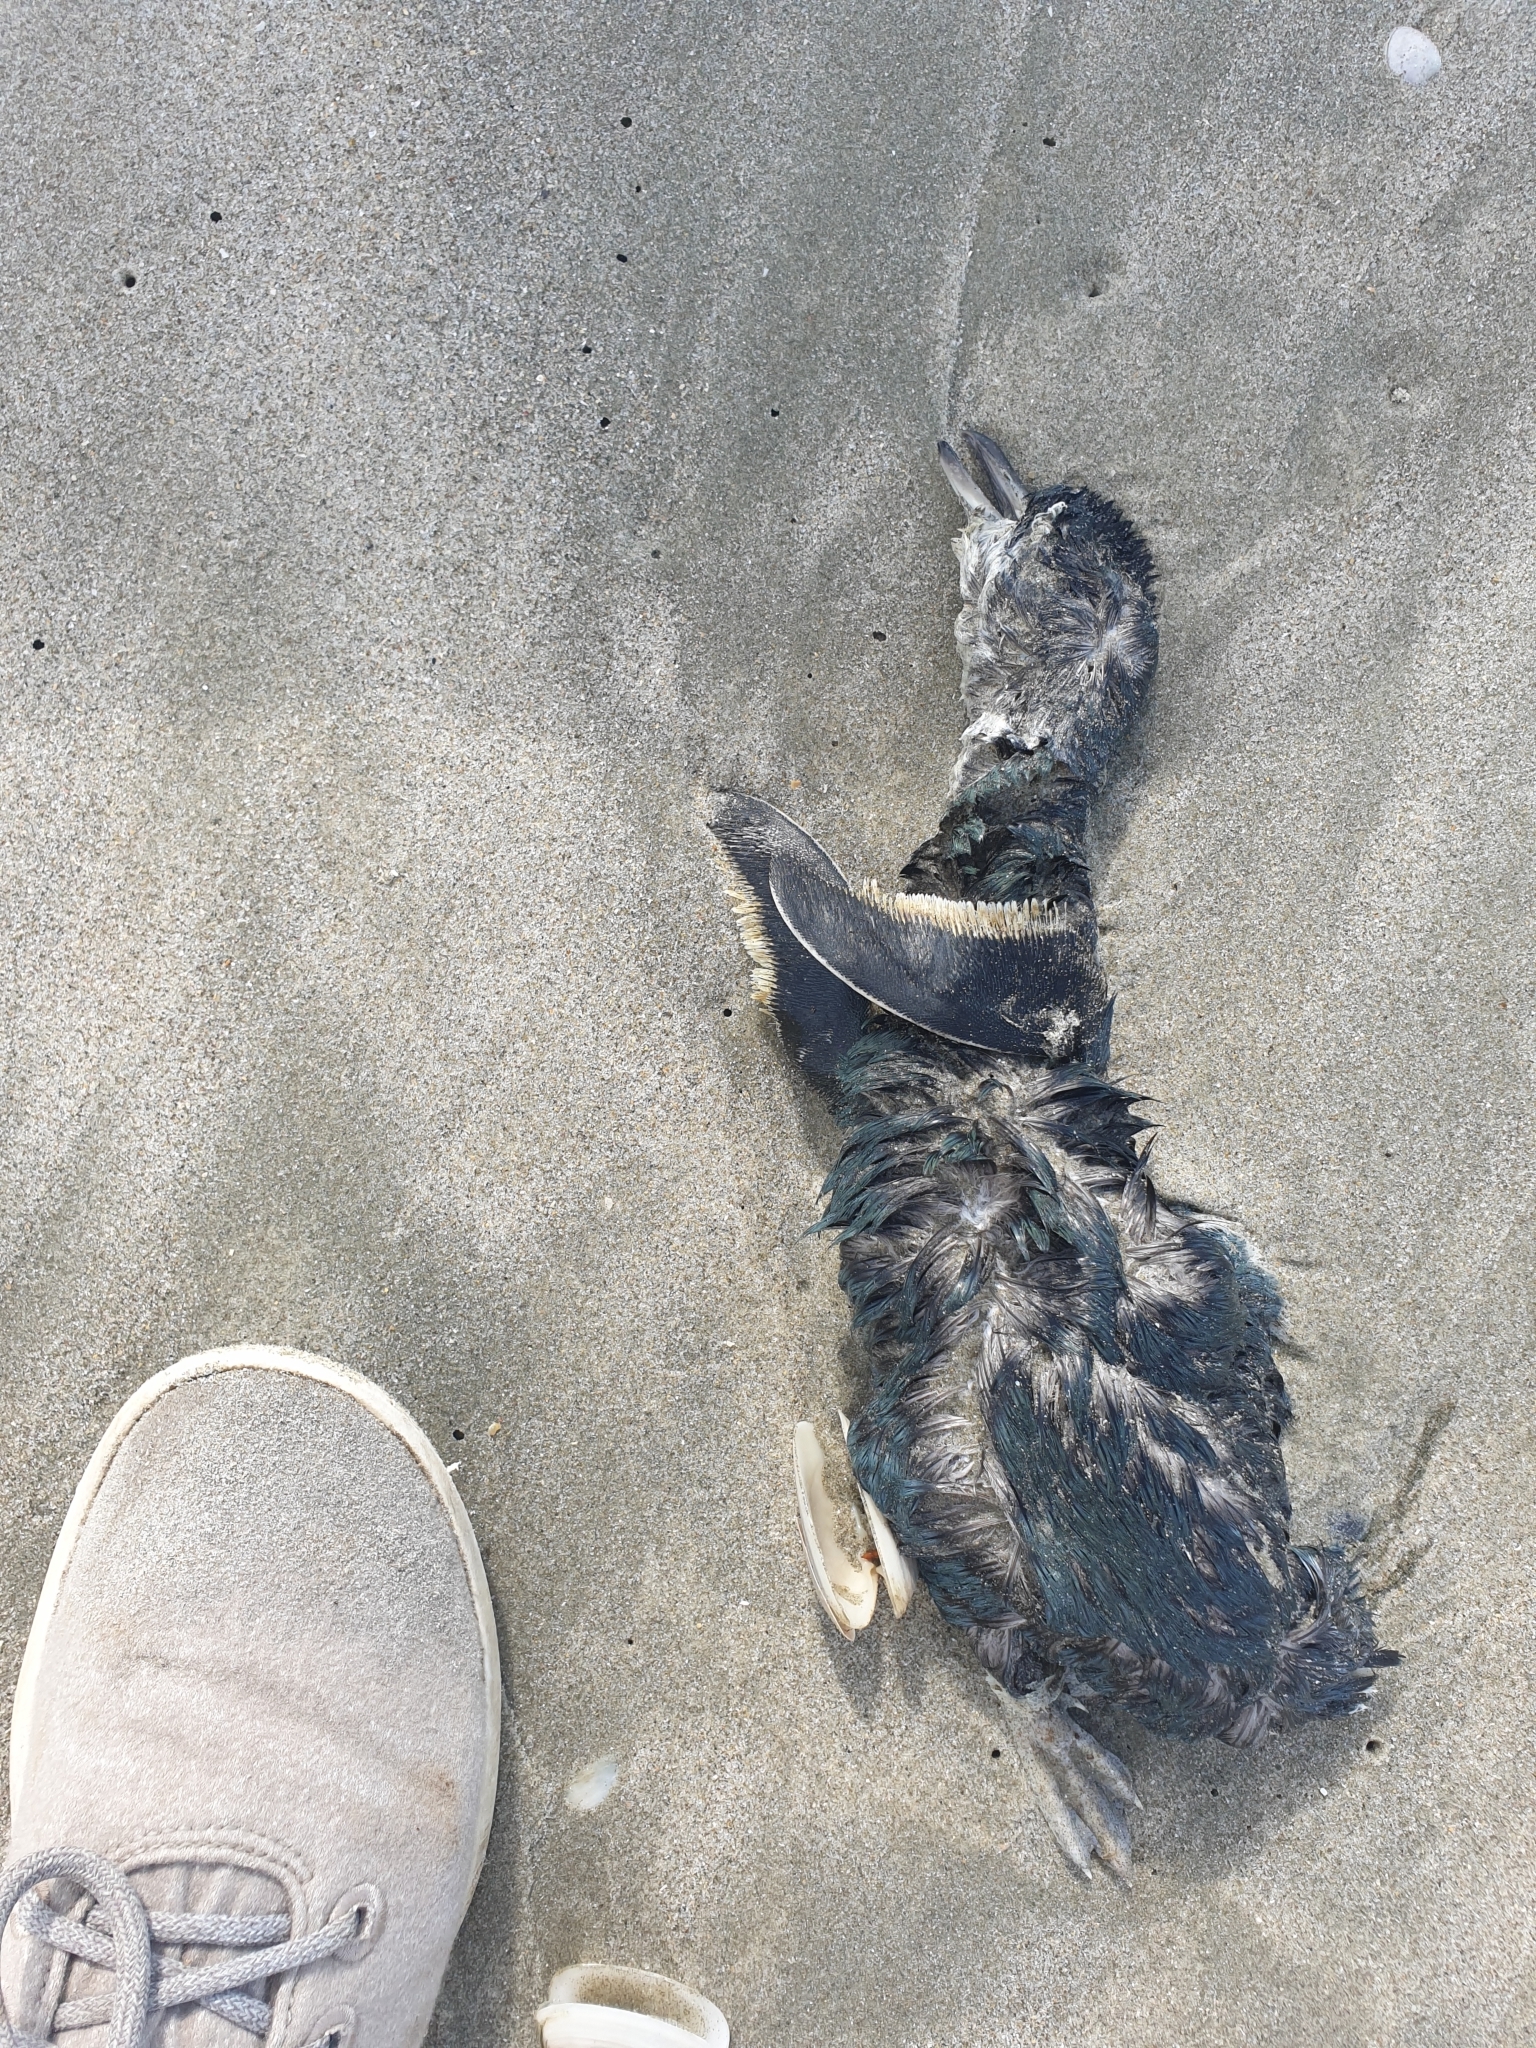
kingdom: Animalia
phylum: Chordata
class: Aves
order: Sphenisciformes
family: Spheniscidae
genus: Eudyptula
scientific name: Eudyptula minor
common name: Little penguin
